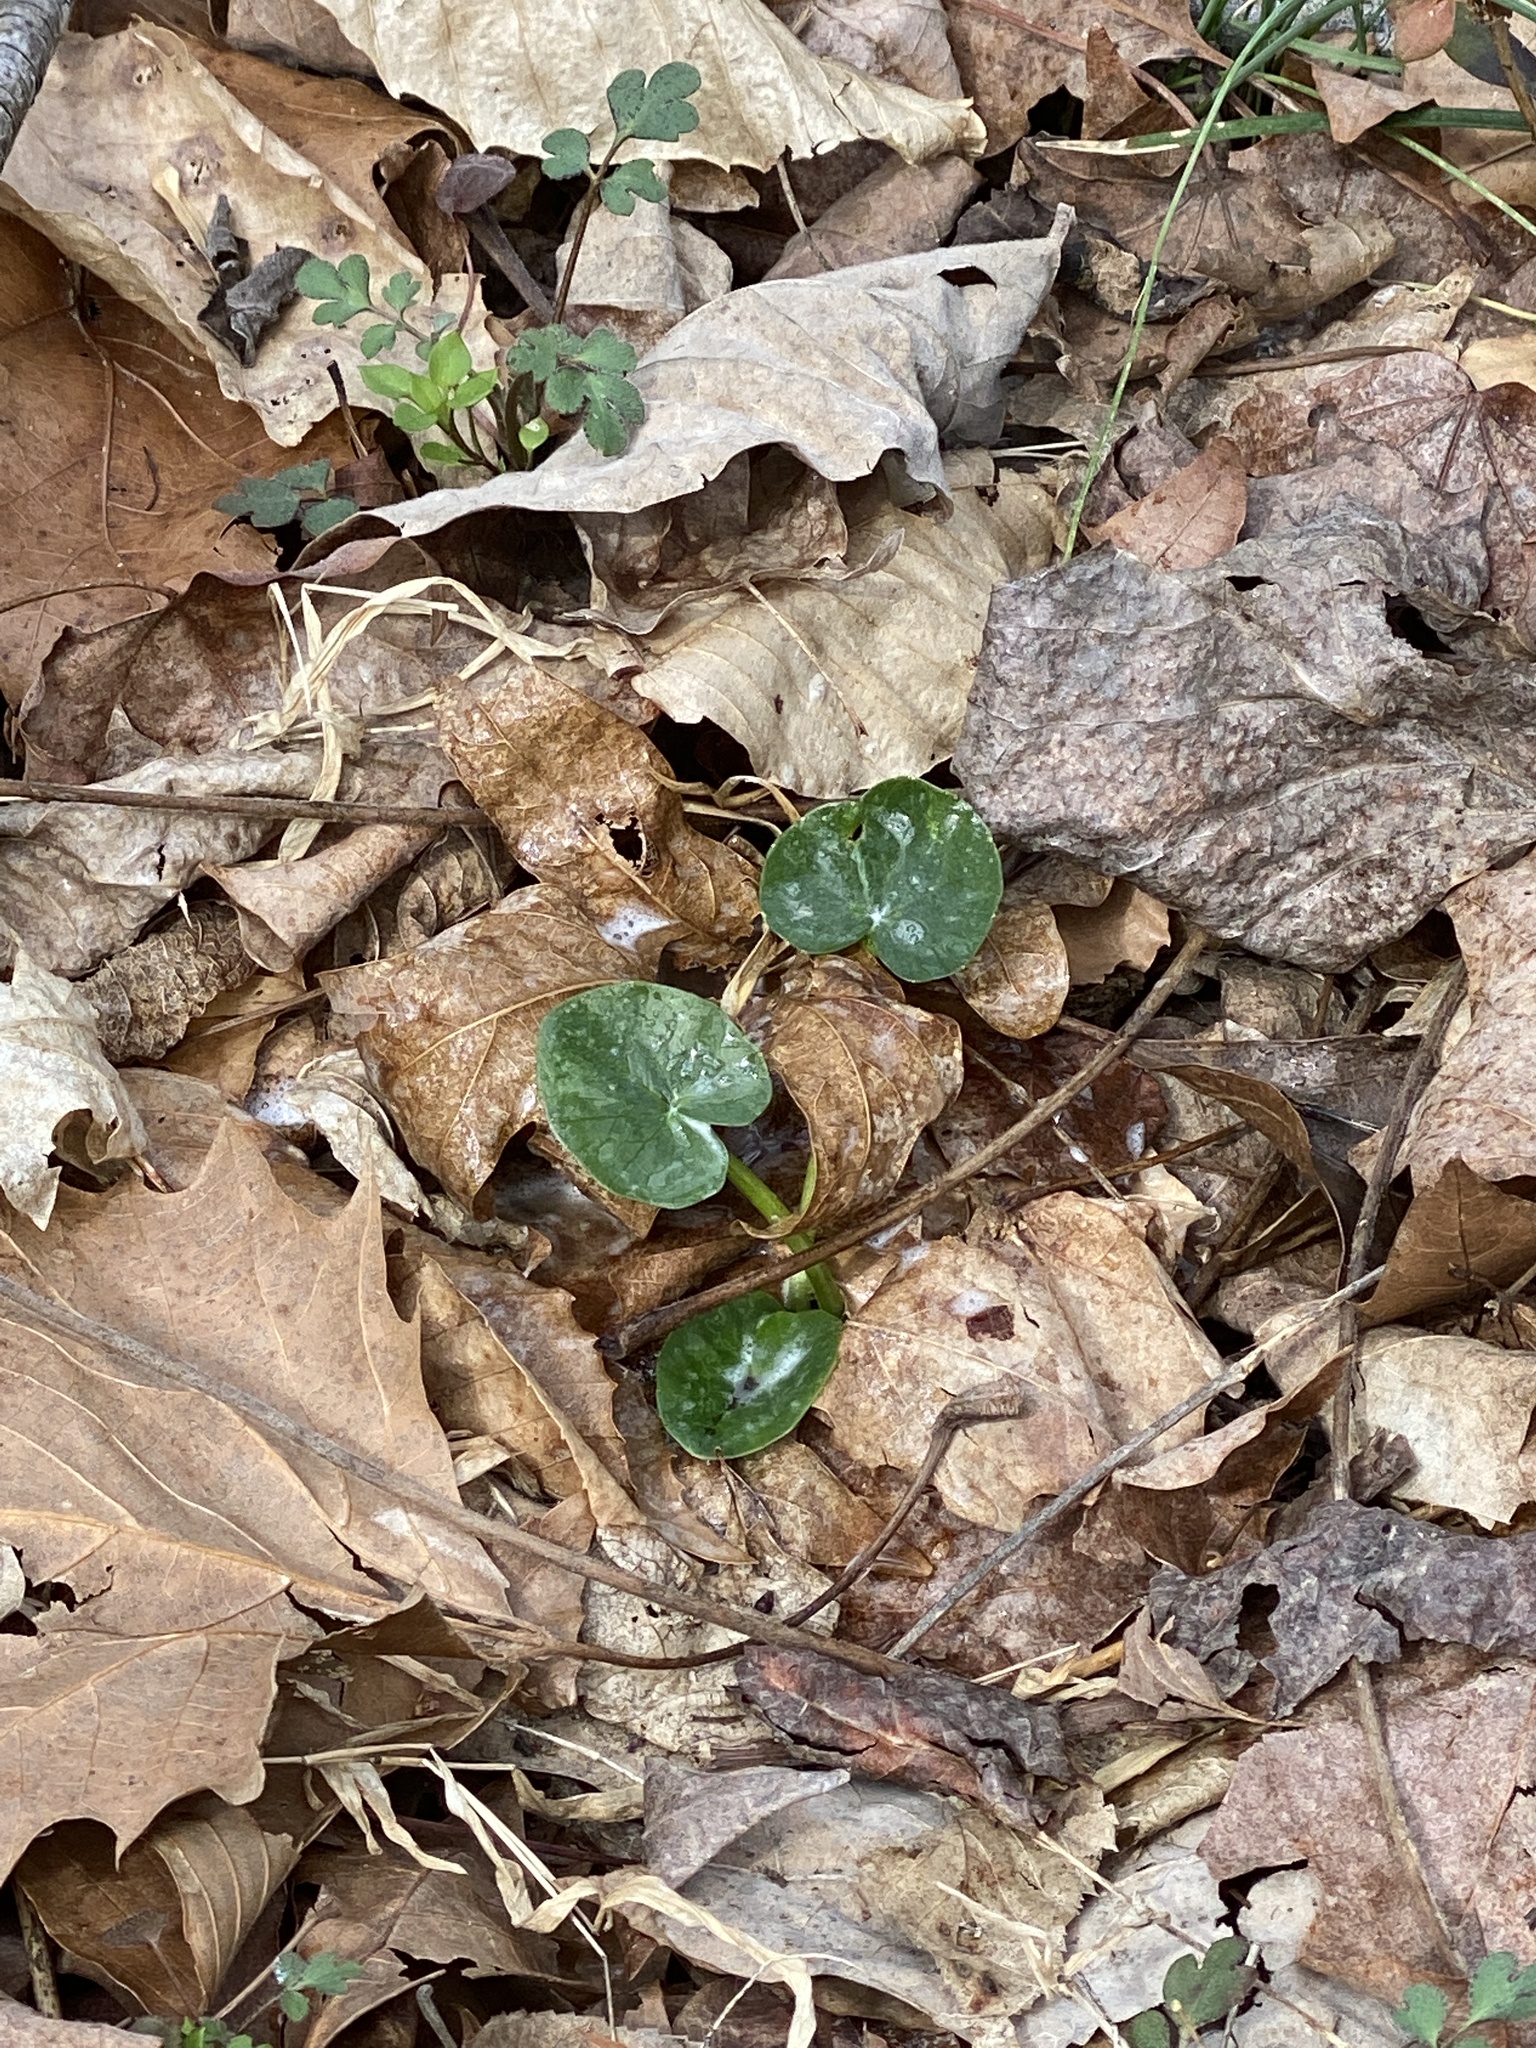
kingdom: Plantae
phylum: Tracheophyta
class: Magnoliopsida
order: Ranunculales
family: Ranunculaceae
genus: Ficaria
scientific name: Ficaria verna
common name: Lesser celandine
